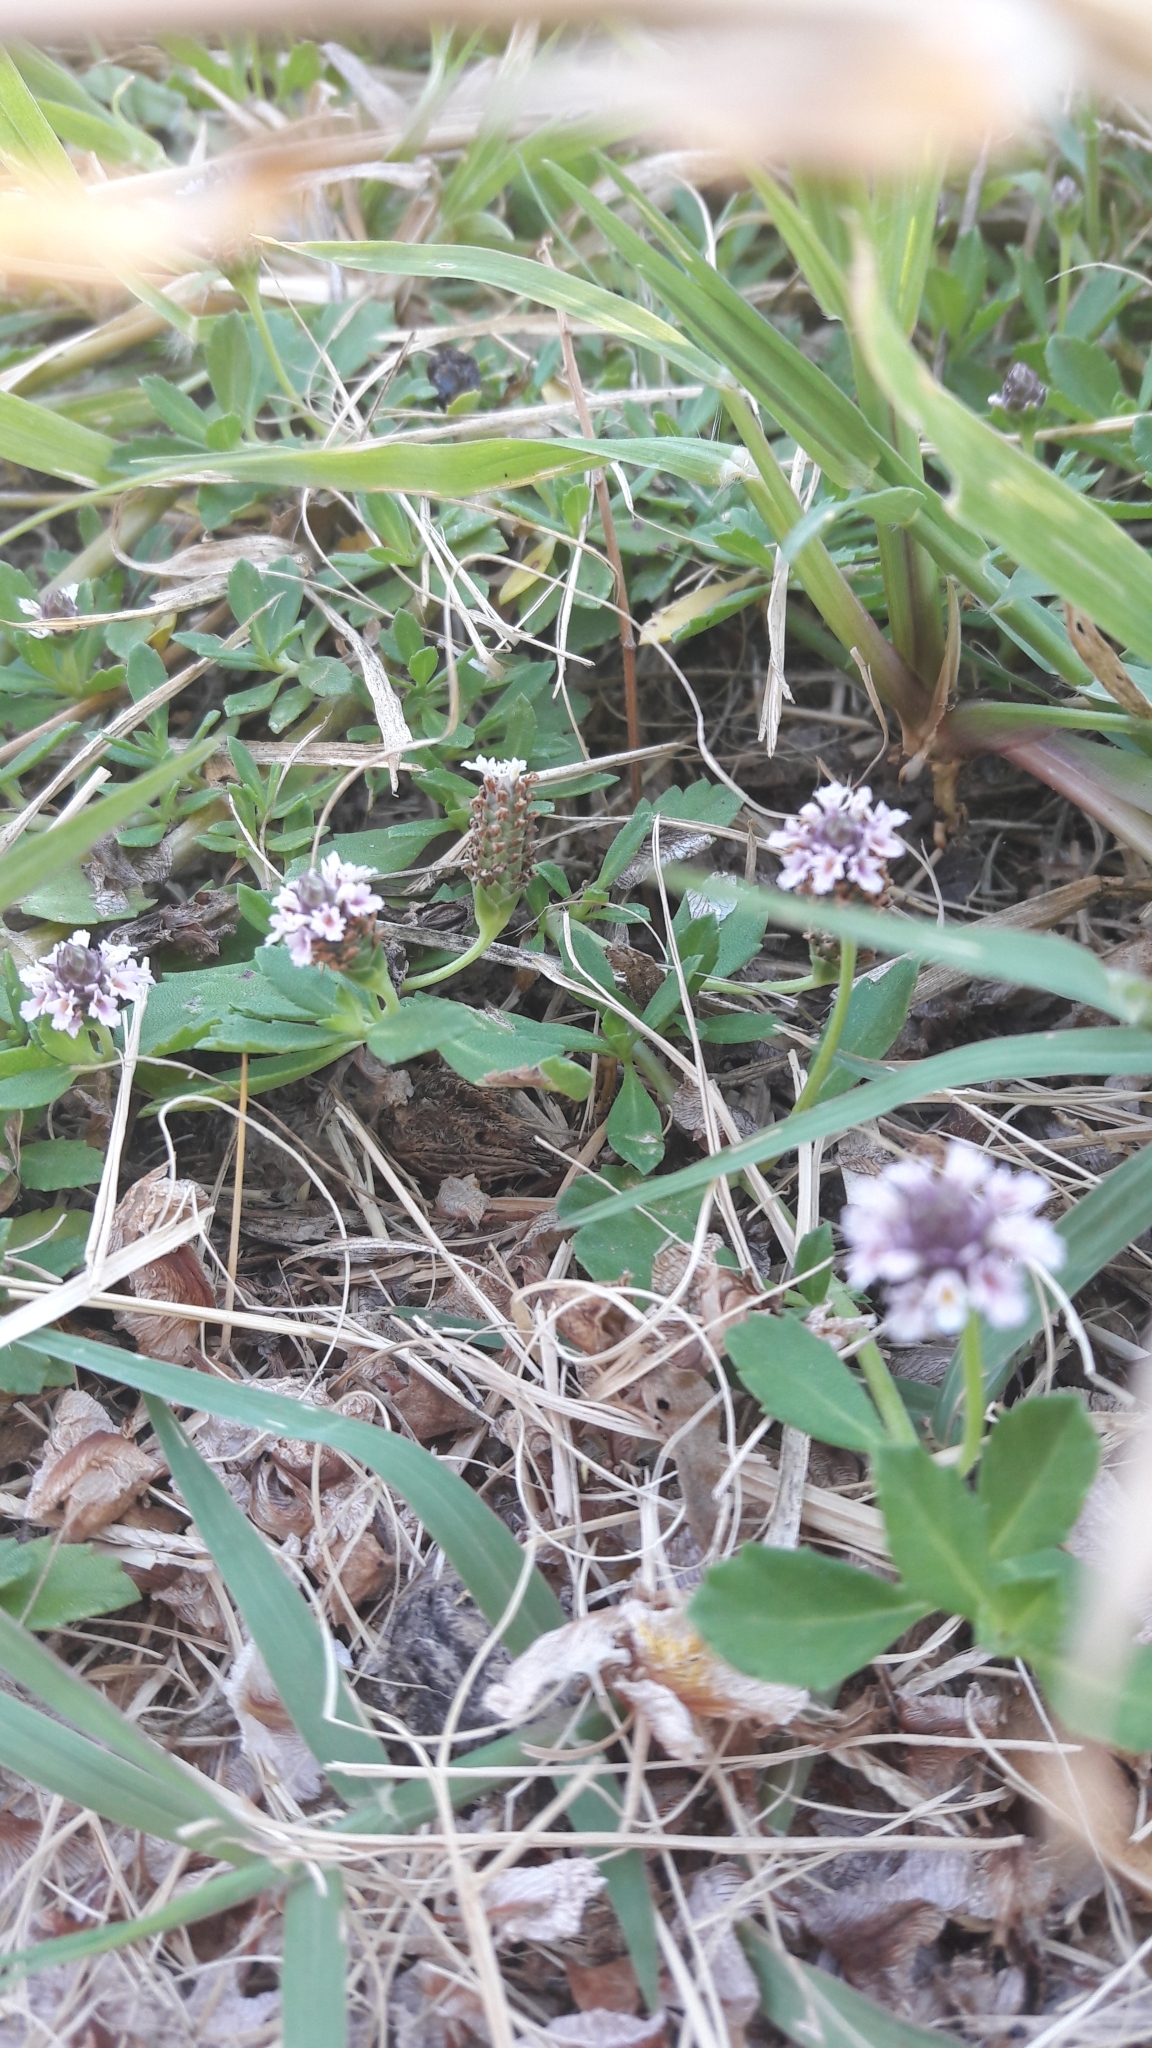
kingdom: Plantae
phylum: Tracheophyta
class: Magnoliopsida
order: Lamiales
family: Verbenaceae
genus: Phyla
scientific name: Phyla nodiflora
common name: Frogfruit
